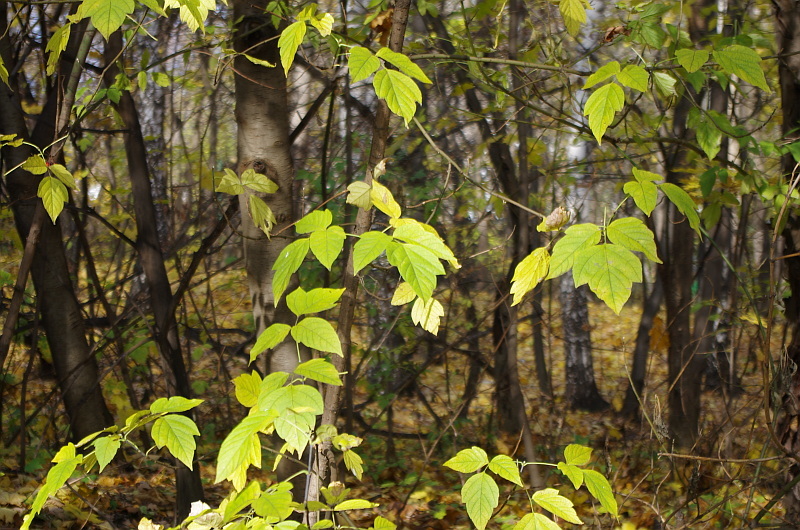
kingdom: Plantae
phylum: Tracheophyta
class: Magnoliopsida
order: Sapindales
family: Sapindaceae
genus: Acer
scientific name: Acer negundo
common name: Ashleaf maple
